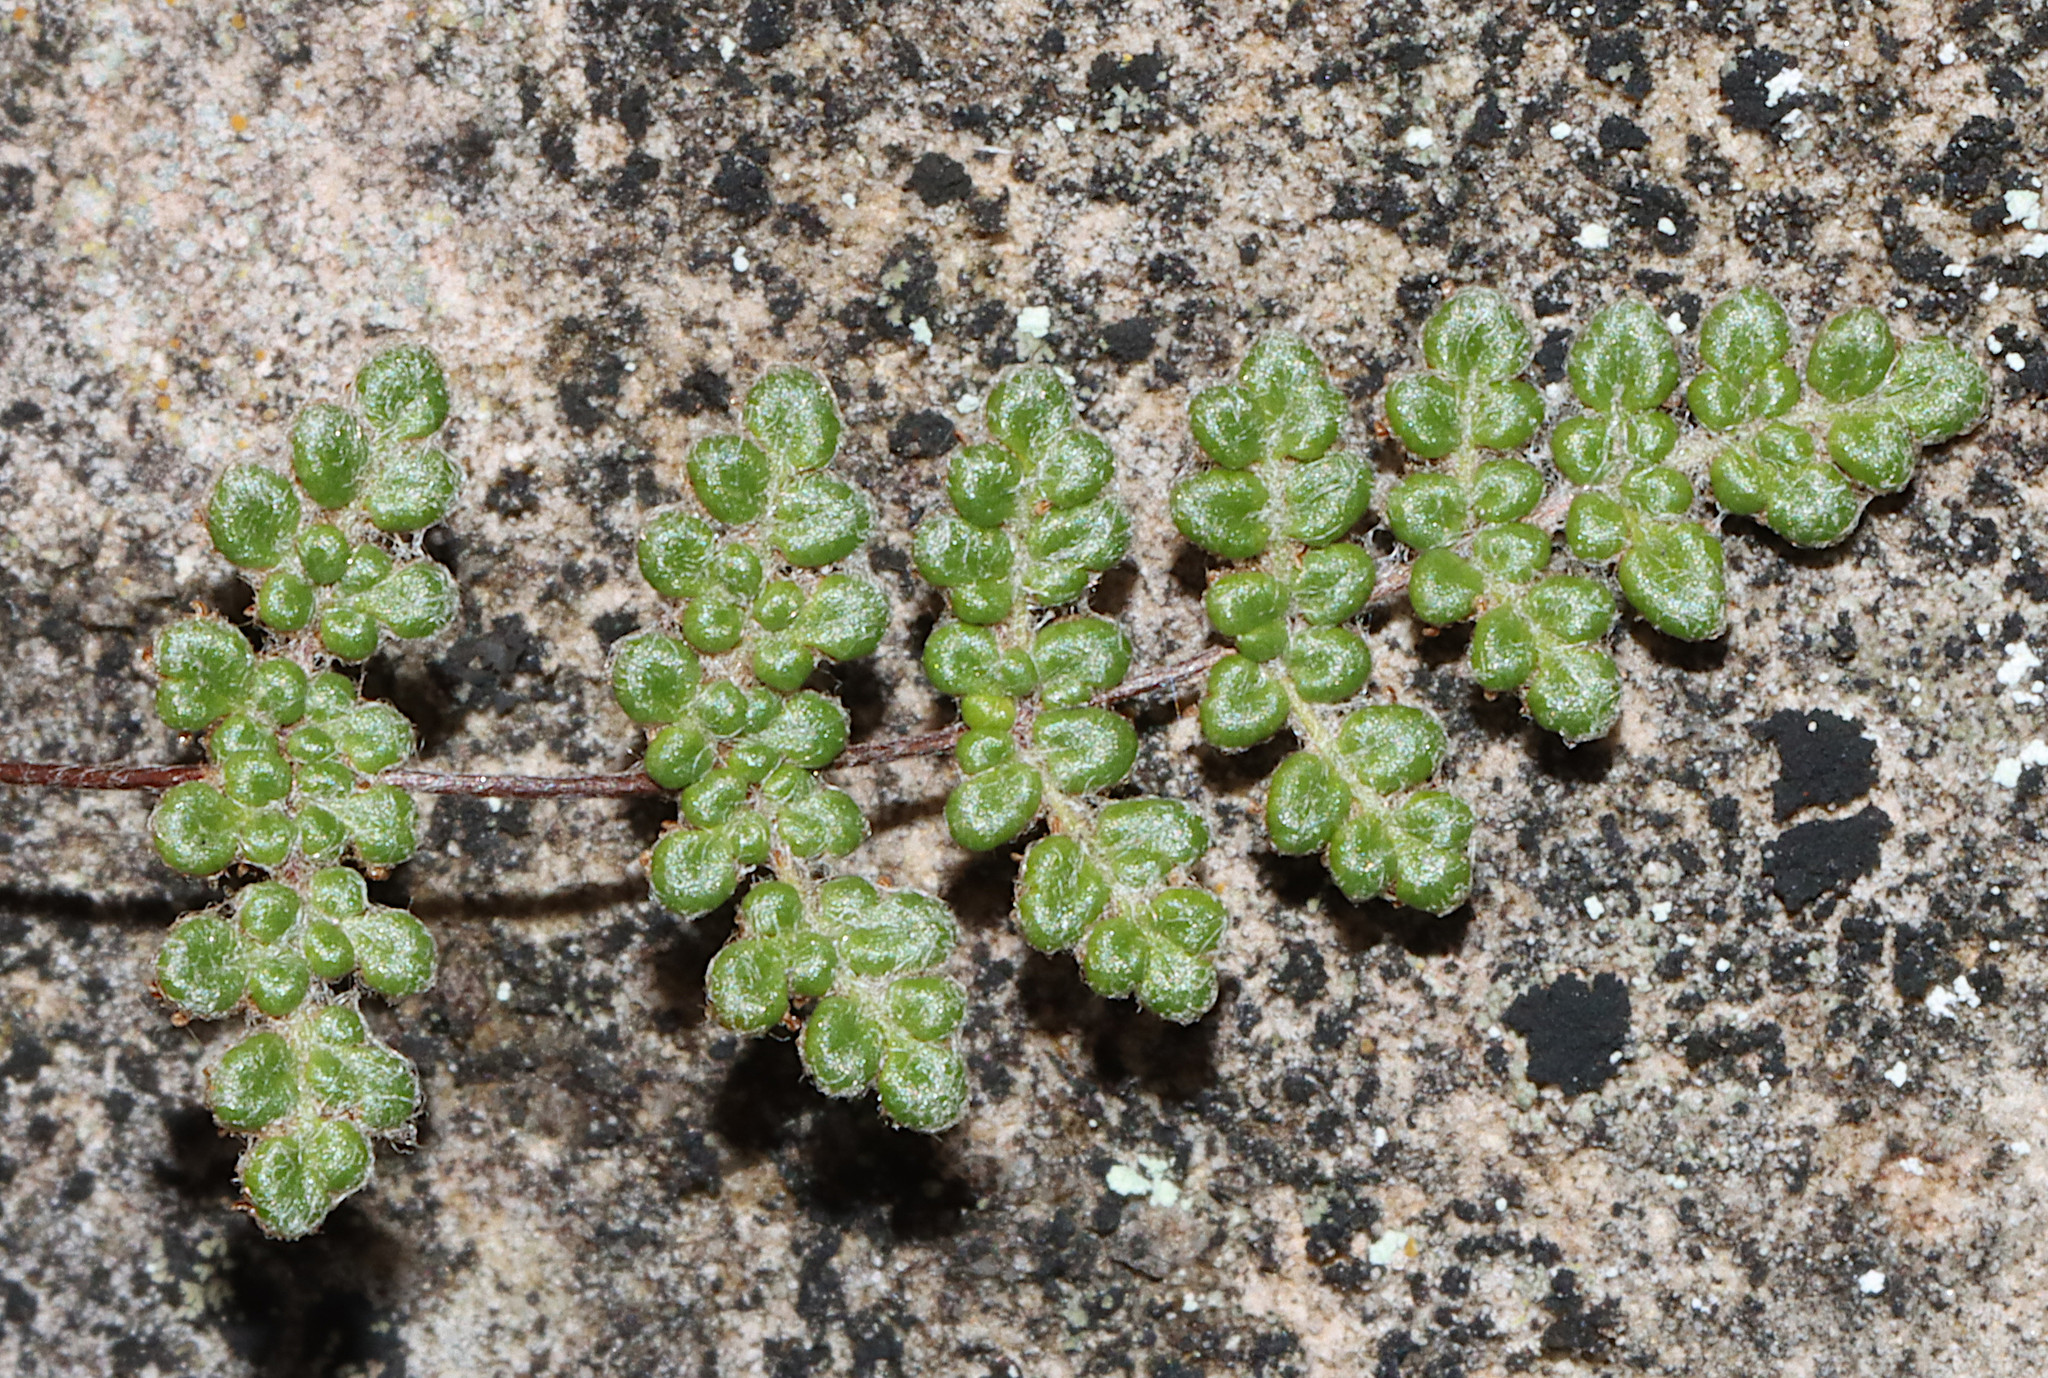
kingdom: Plantae
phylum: Tracheophyta
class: Polypodiopsida
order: Polypodiales
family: Pteridaceae
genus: Myriopteris
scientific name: Myriopteris gracilis
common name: Fee's lip fern
